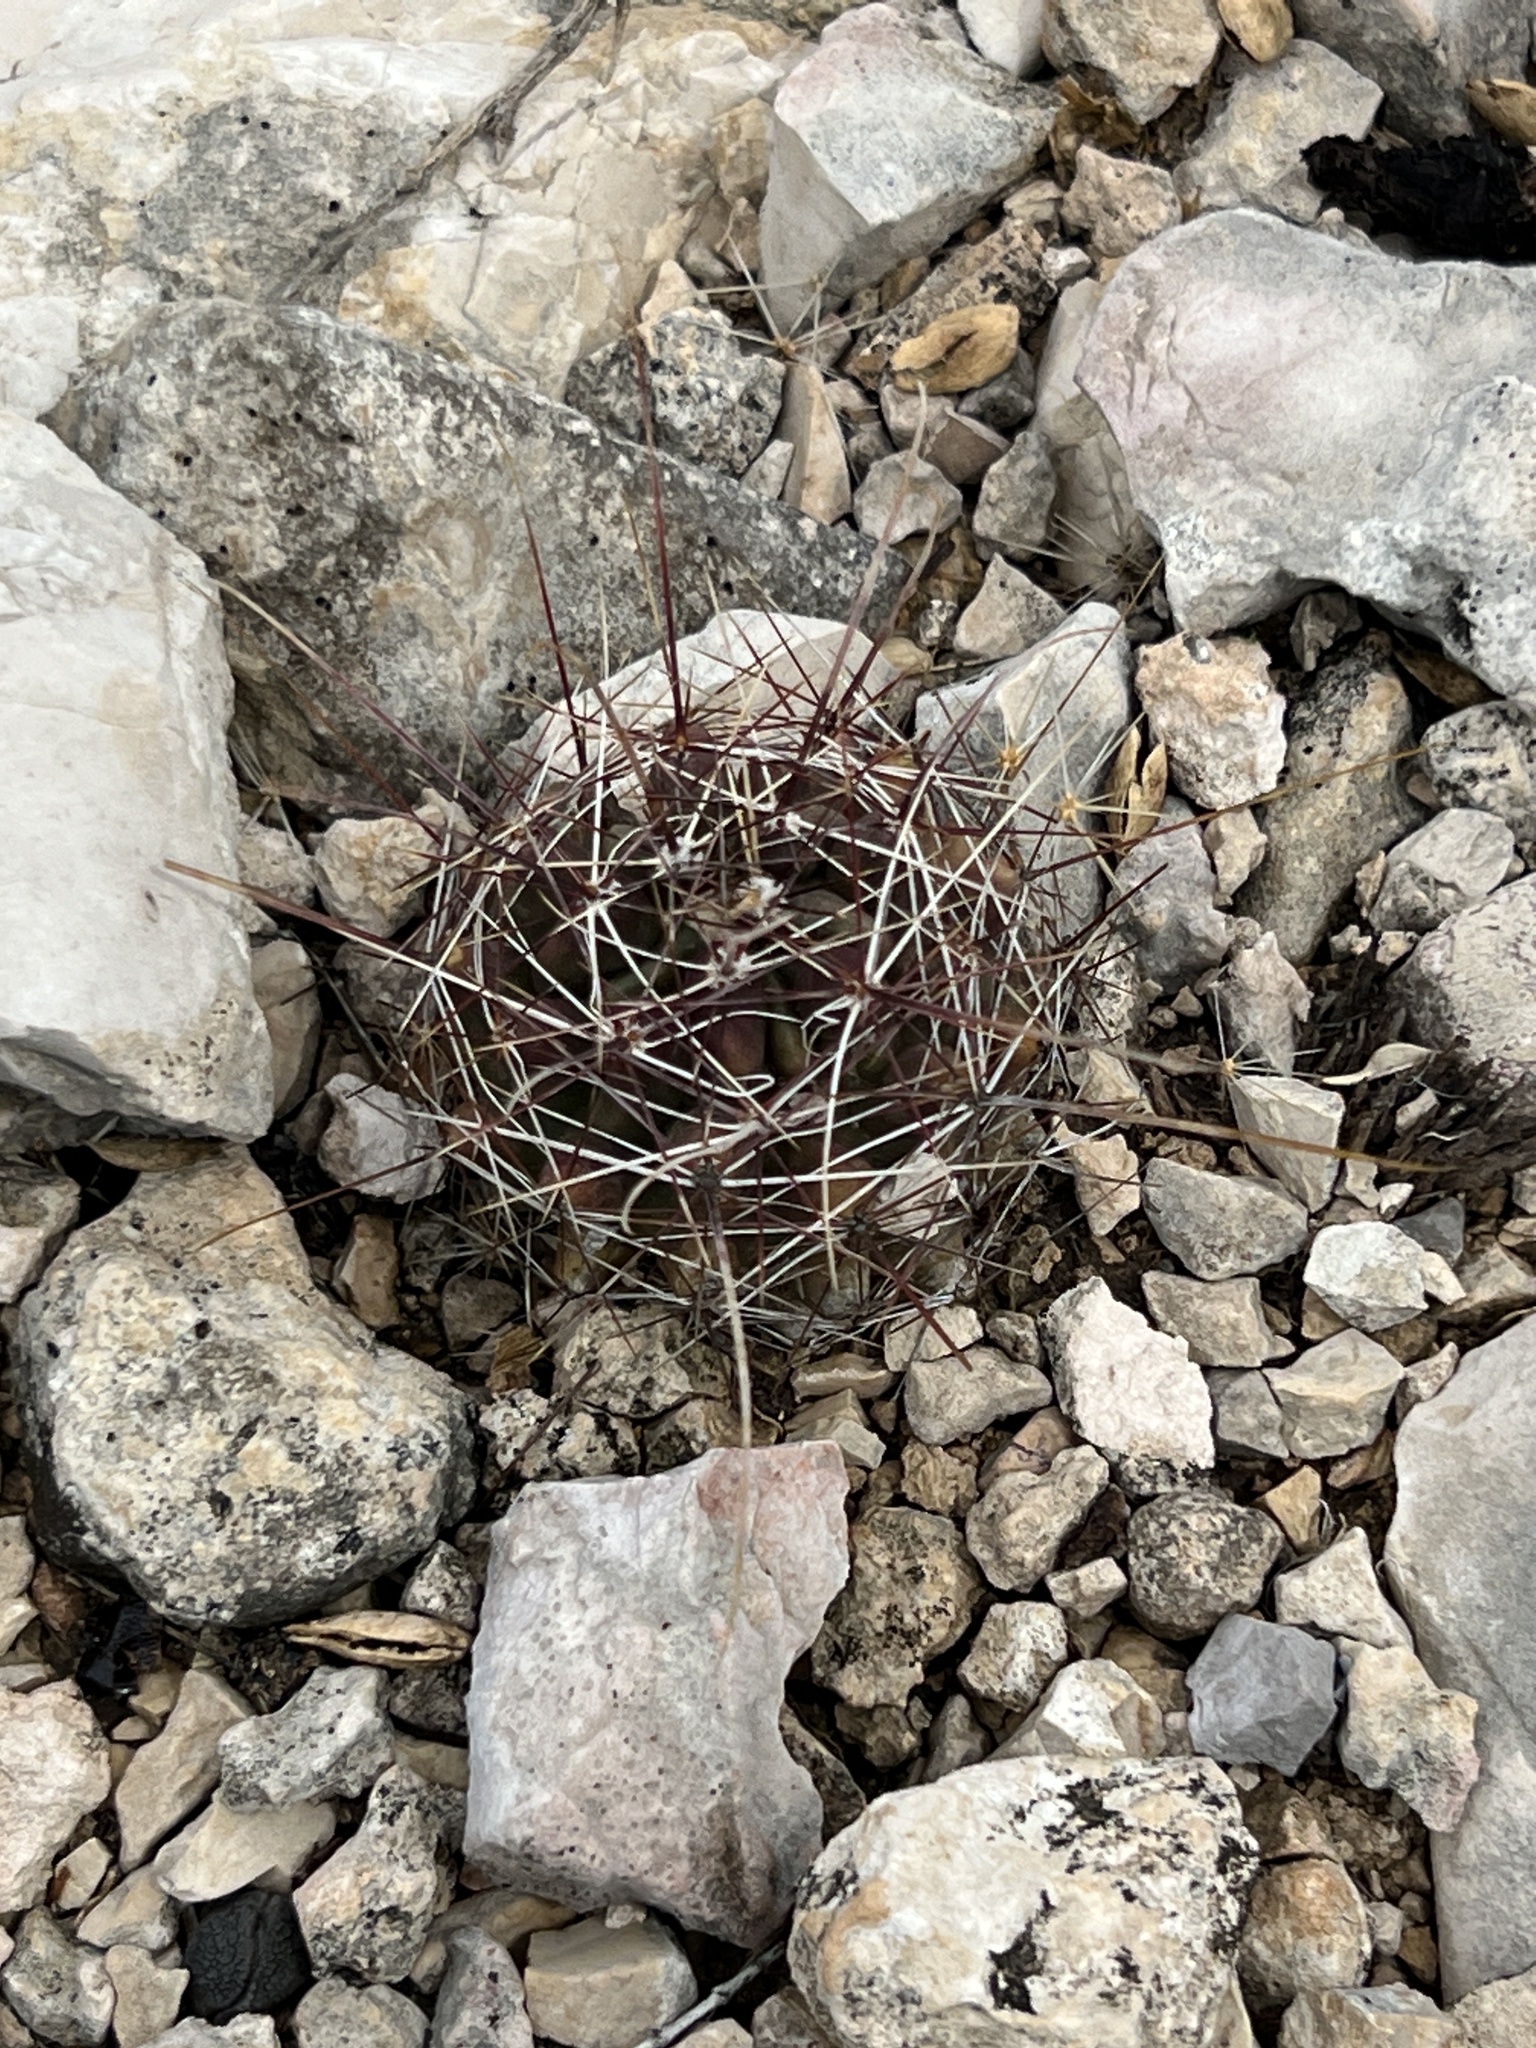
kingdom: Plantae
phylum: Tracheophyta
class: Magnoliopsida
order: Caryophyllales
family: Cactaceae
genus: Bisnaga
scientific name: Bisnaga hamatacantha
